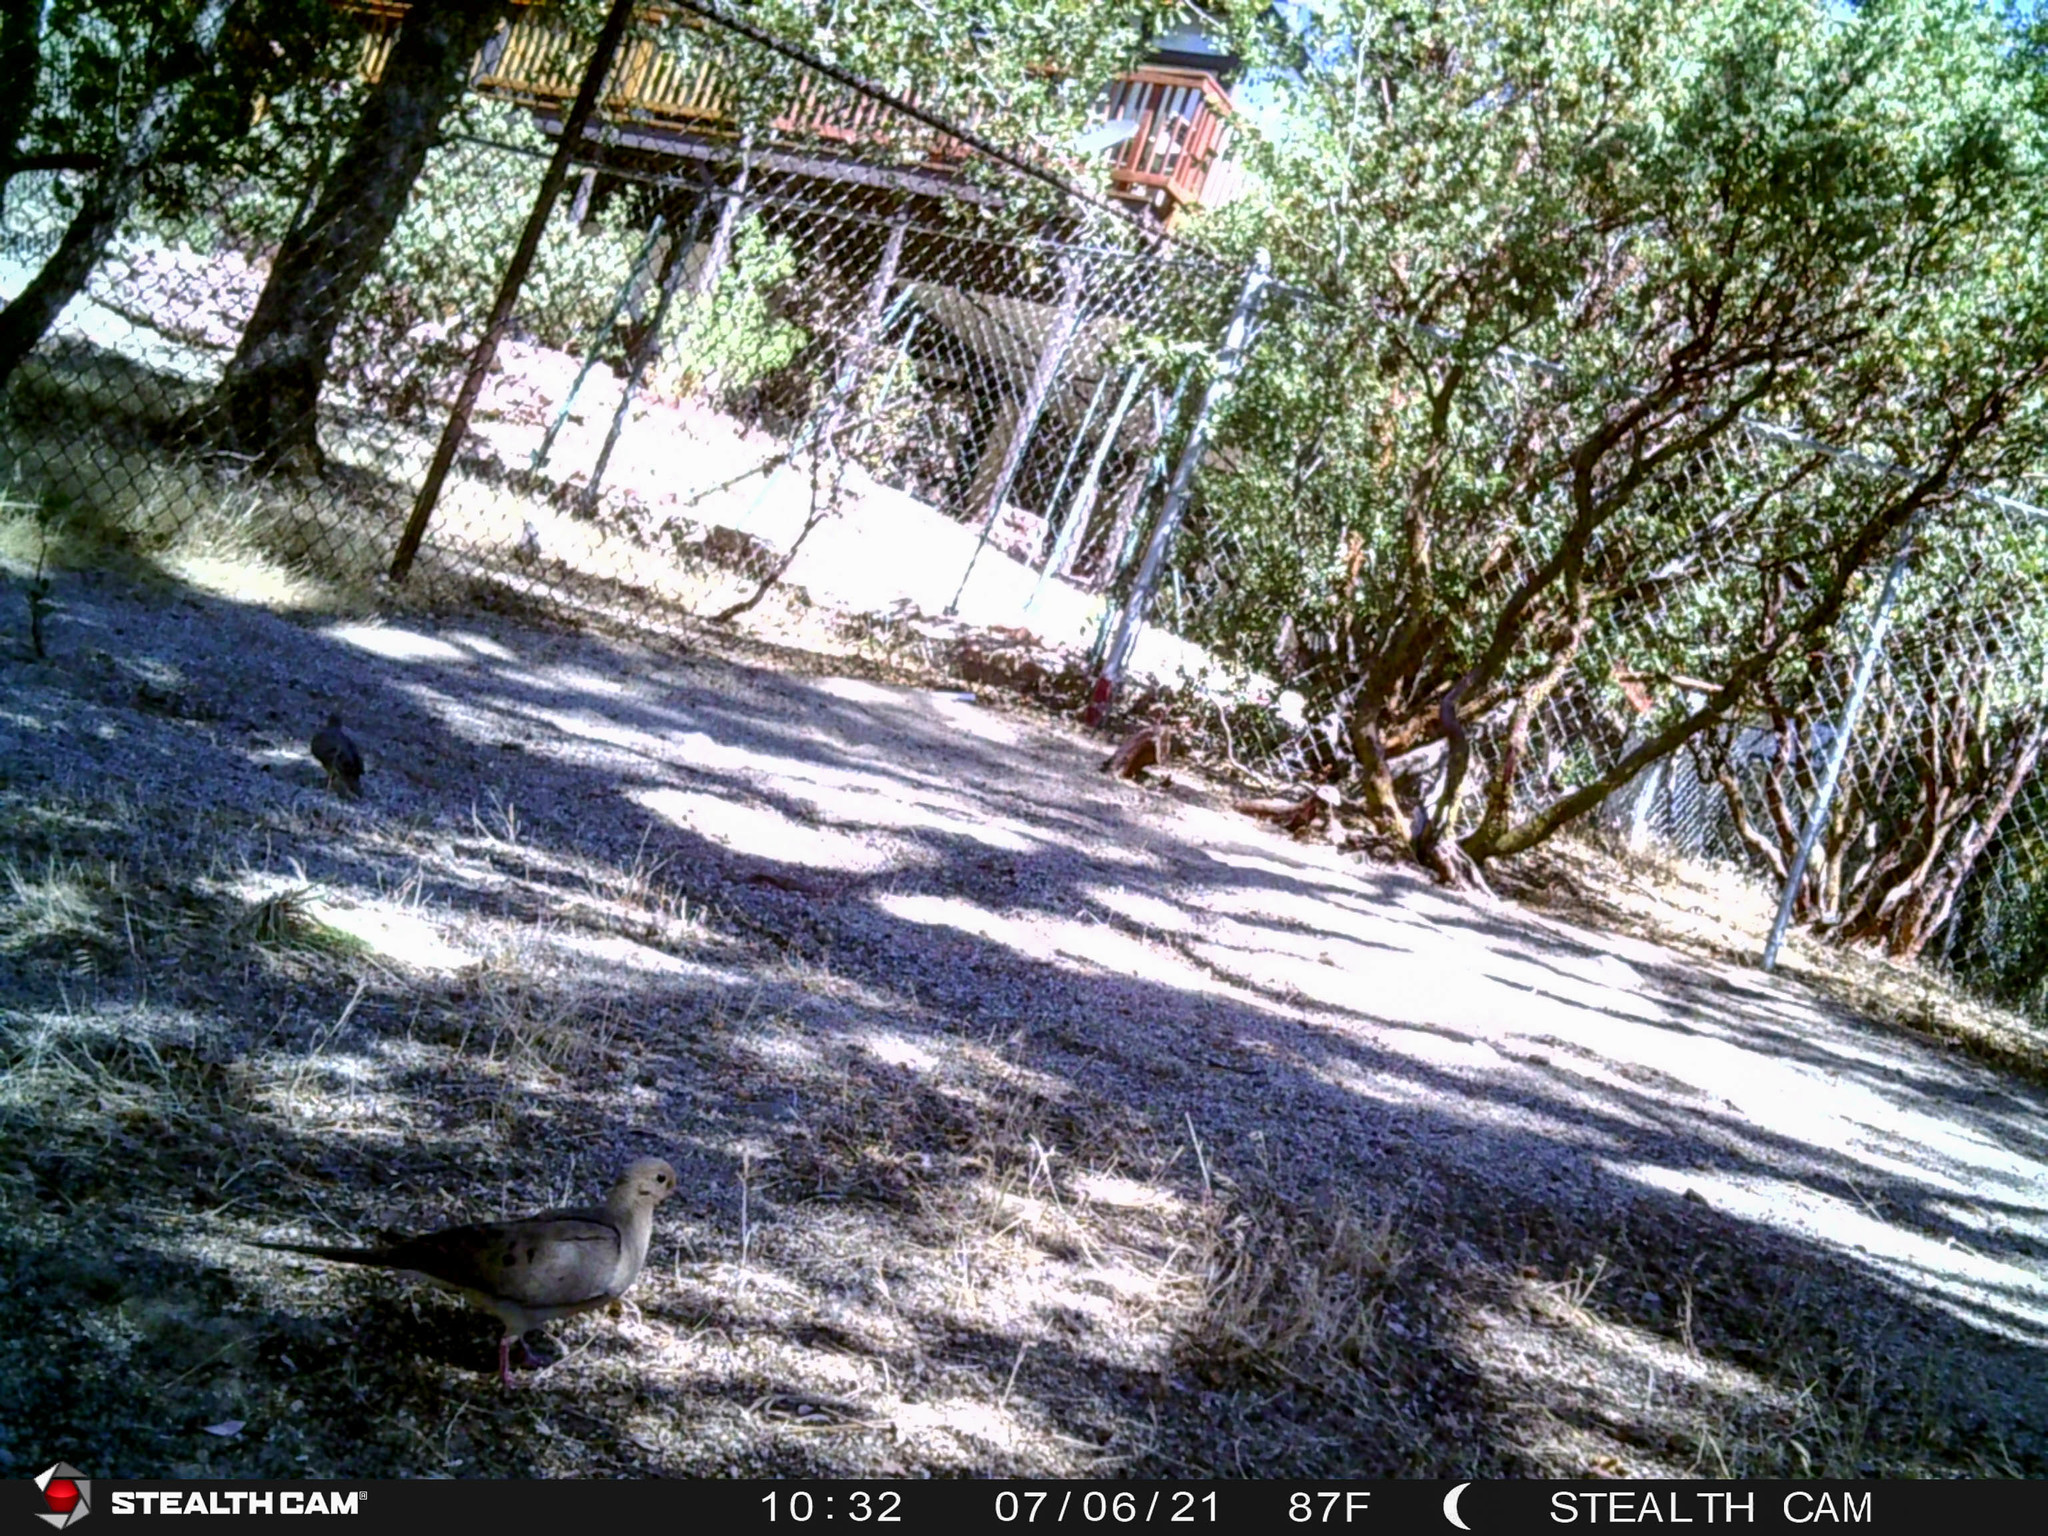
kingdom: Animalia
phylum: Chordata
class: Aves
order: Columbiformes
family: Columbidae
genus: Zenaida
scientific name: Zenaida macroura
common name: Mourning dove
